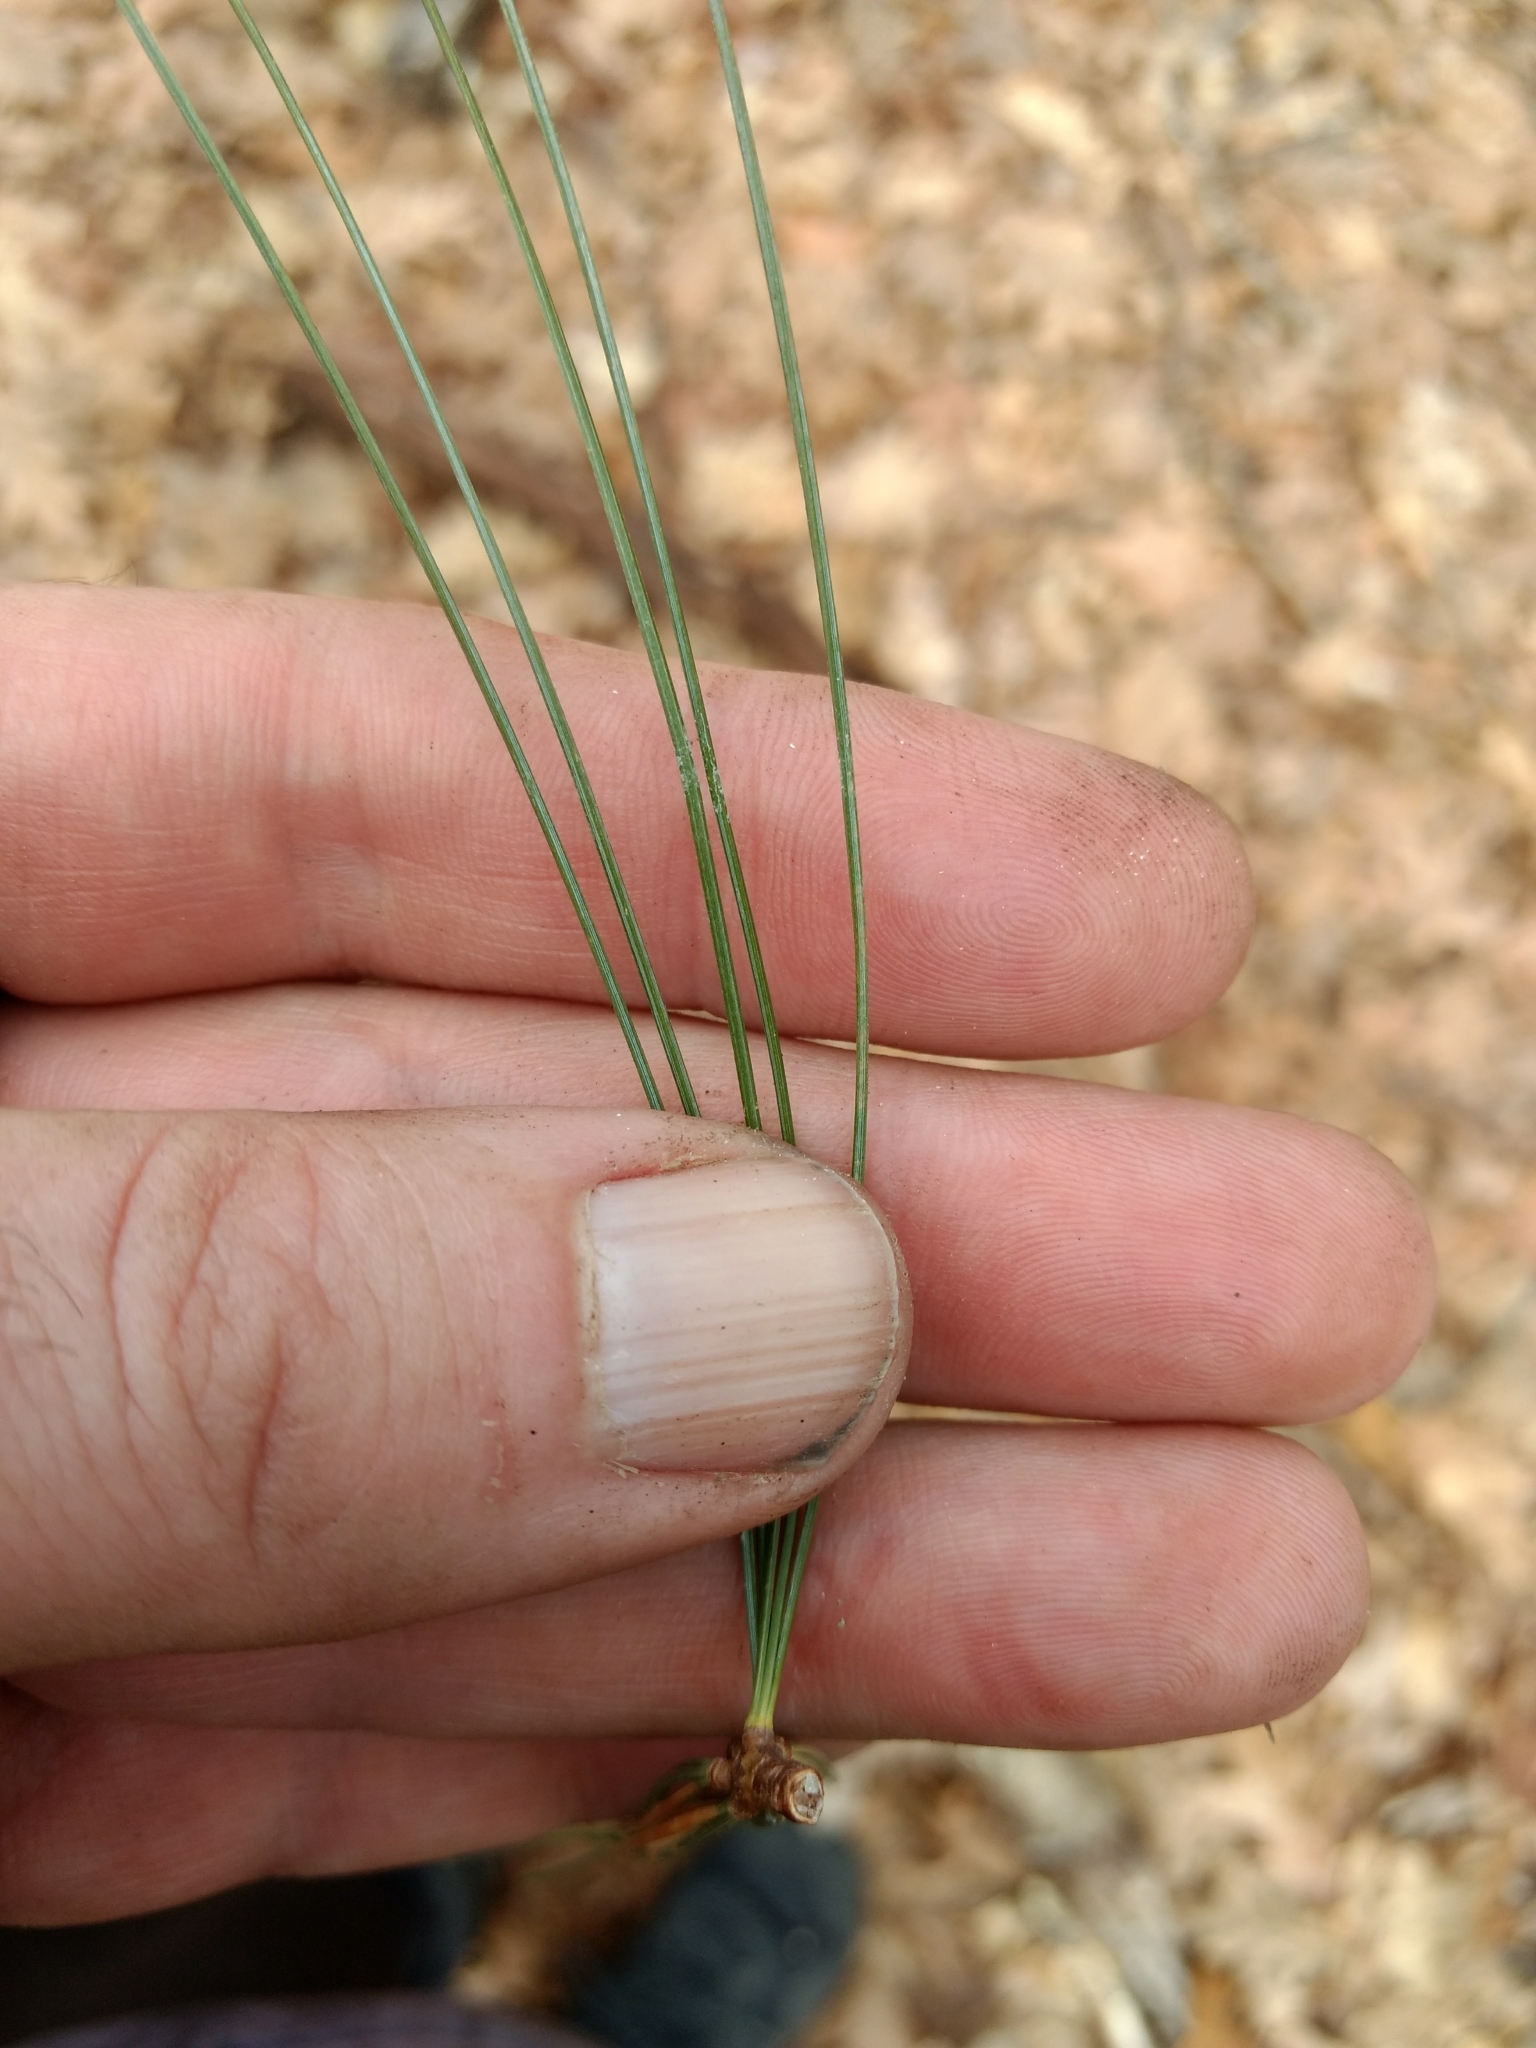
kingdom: Plantae
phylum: Tracheophyta
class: Pinopsida
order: Pinales
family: Pinaceae
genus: Pinus
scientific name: Pinus strobus
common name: Weymouth pine
